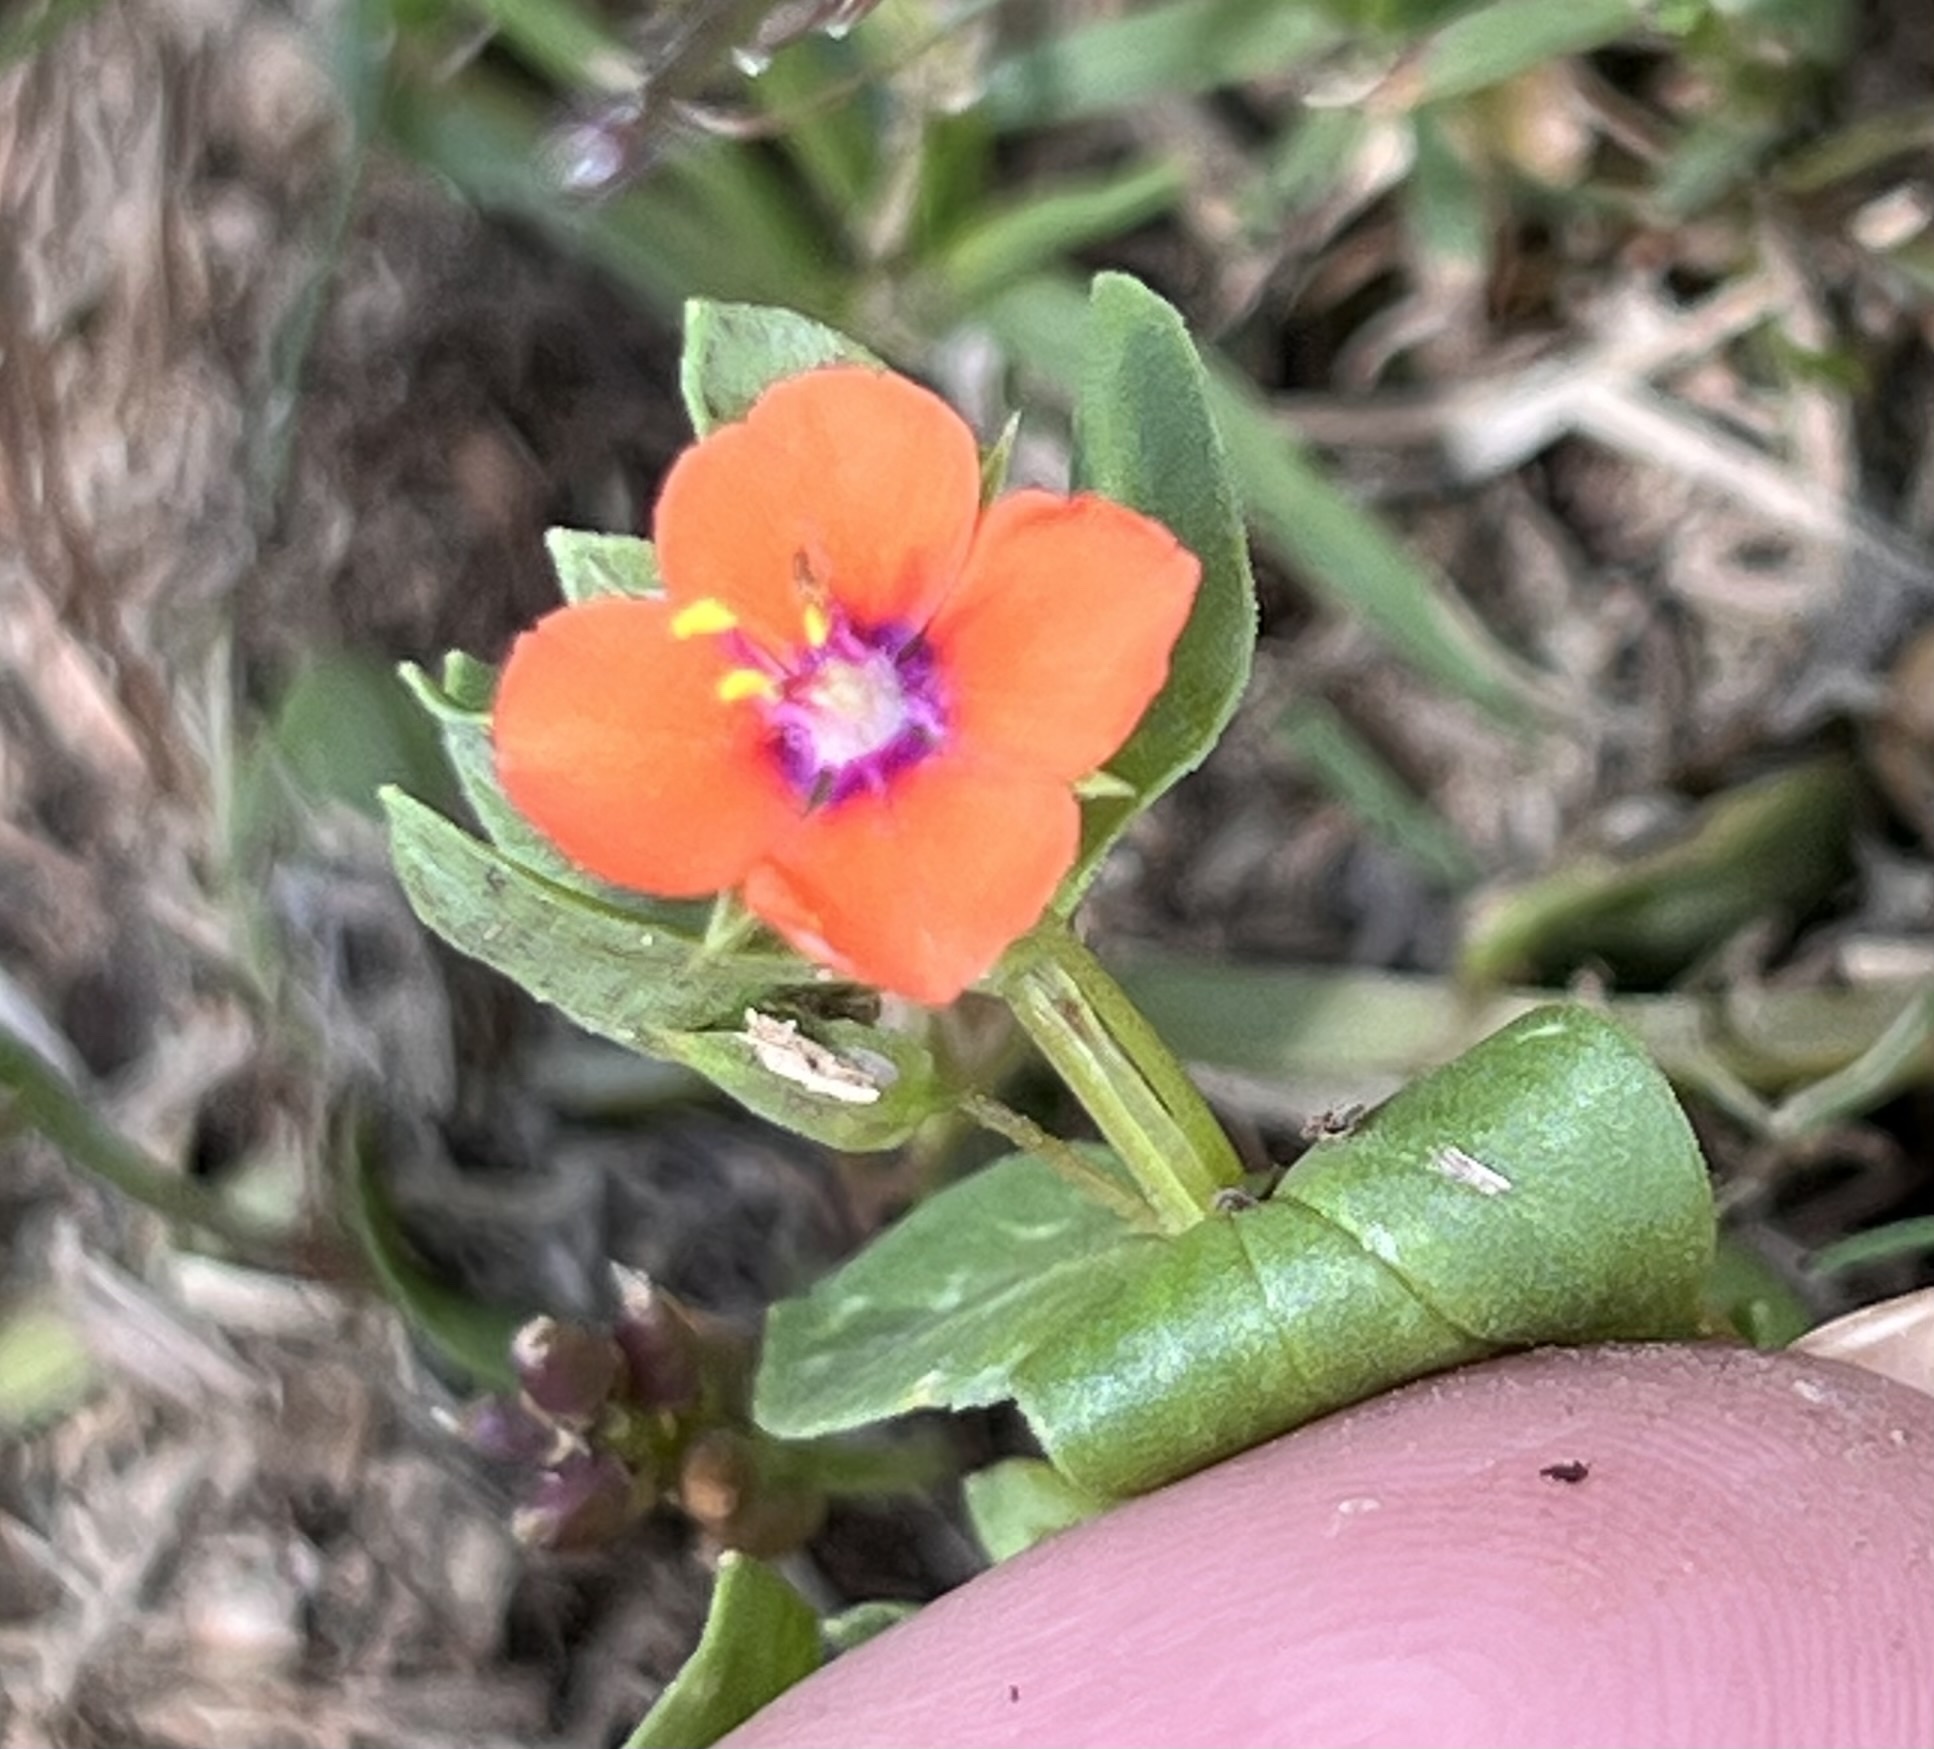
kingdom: Plantae
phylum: Tracheophyta
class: Magnoliopsida
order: Ericales
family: Primulaceae
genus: Lysimachia
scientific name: Lysimachia arvensis
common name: Scarlet pimpernel
